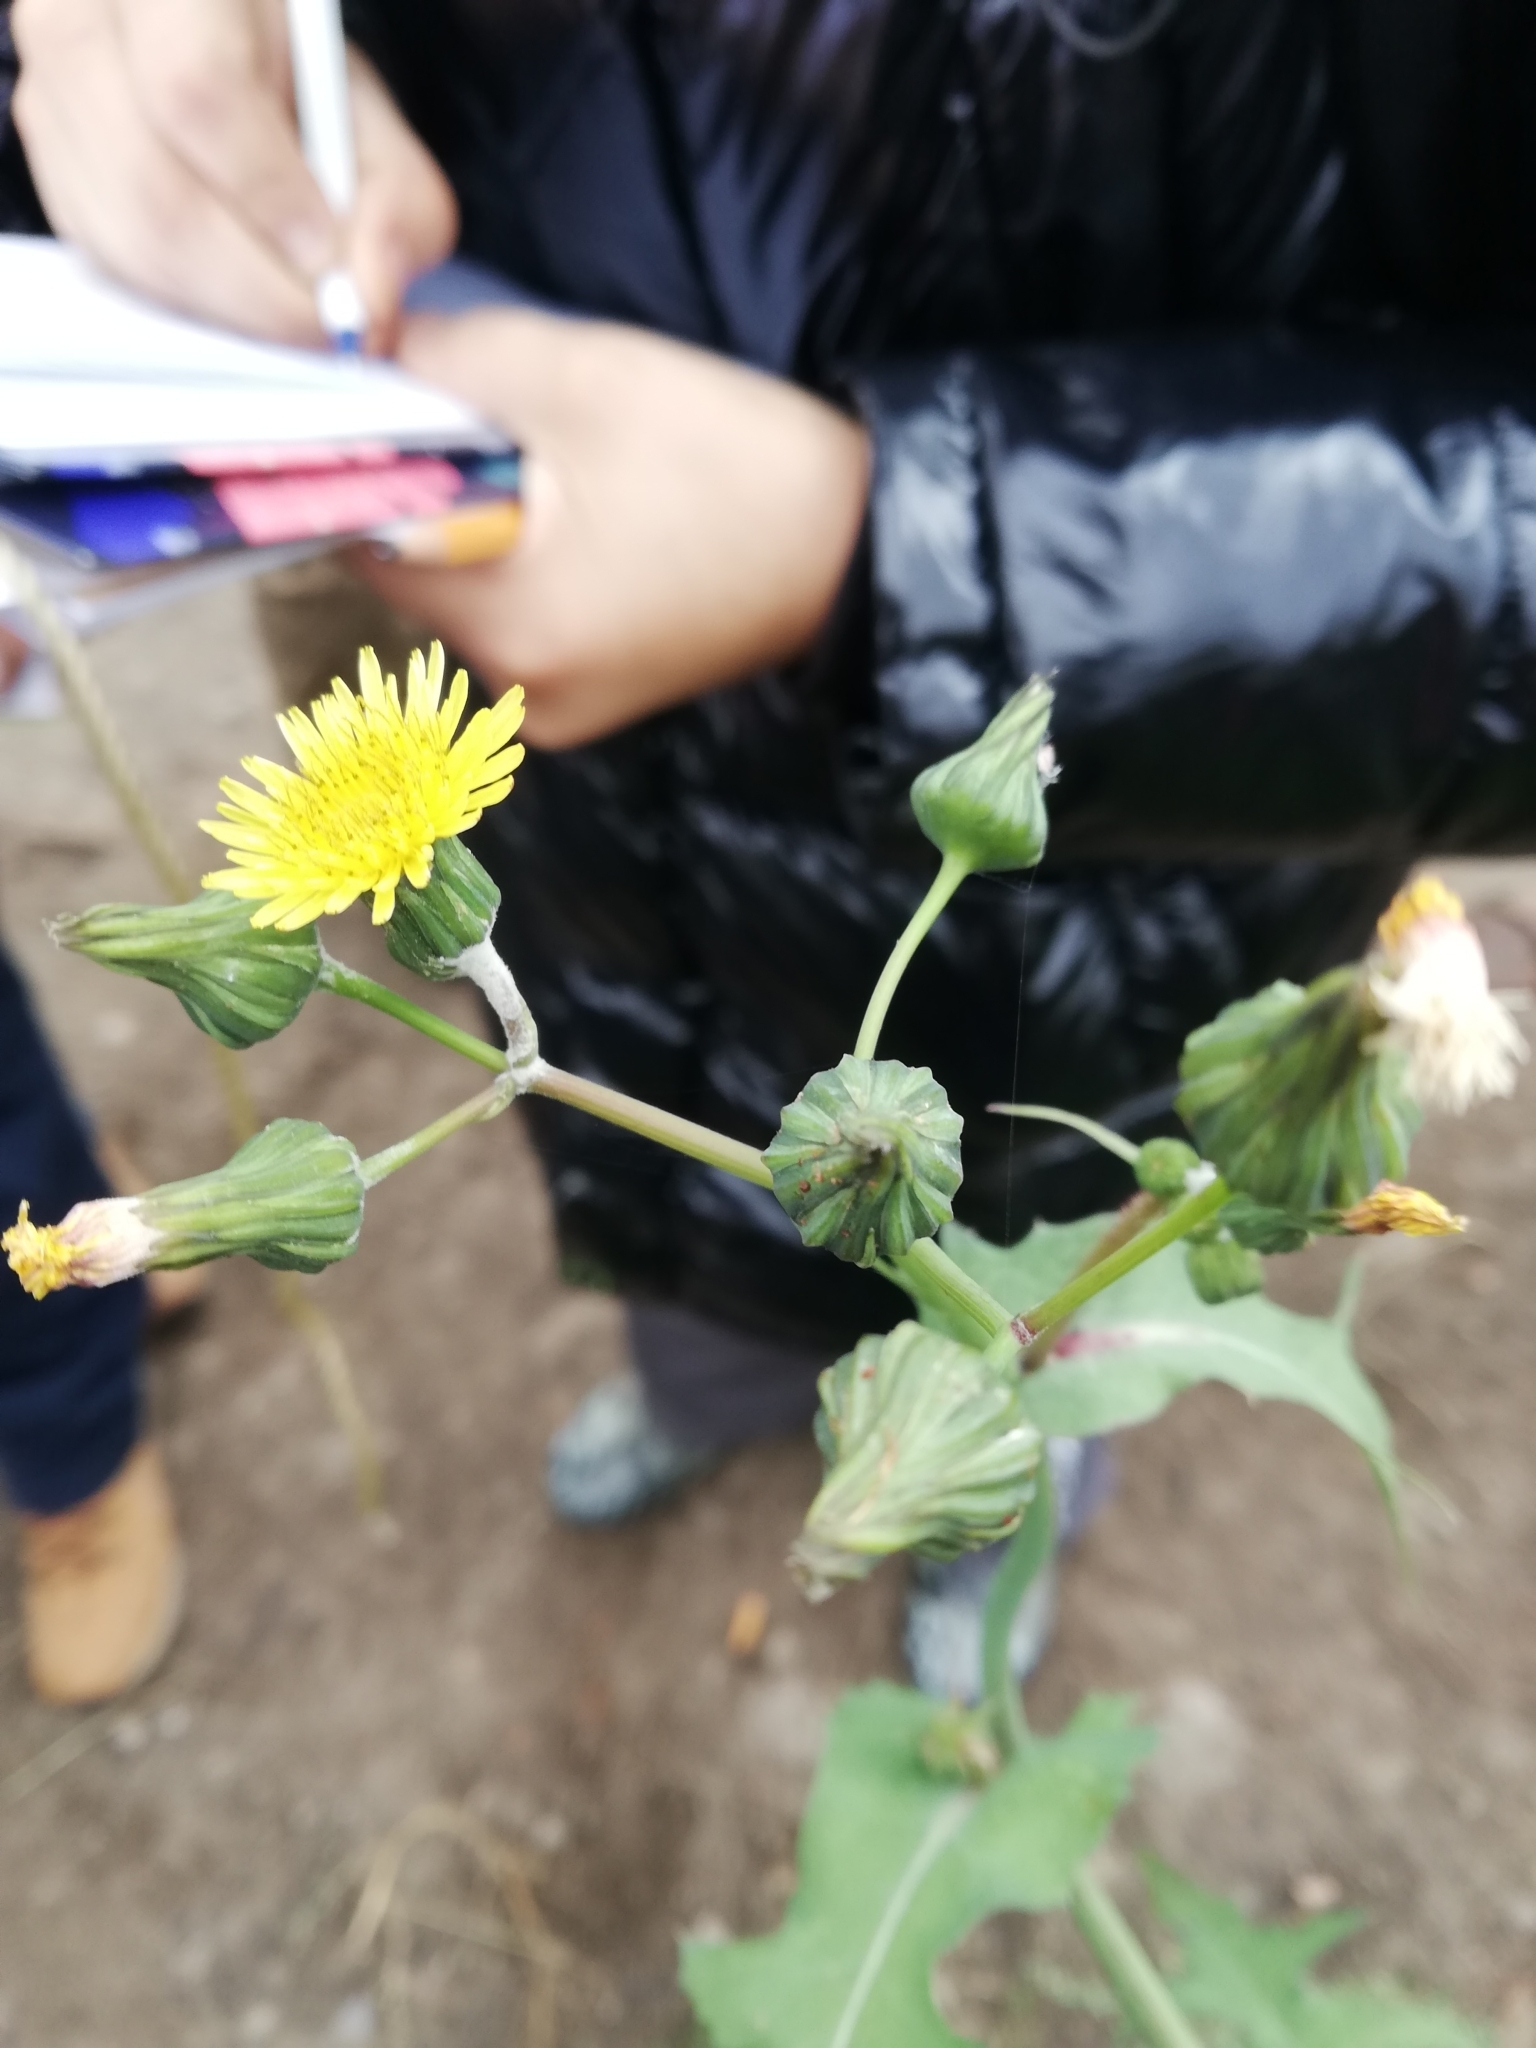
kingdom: Plantae
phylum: Tracheophyta
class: Magnoliopsida
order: Asterales
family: Asteraceae
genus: Sonchus
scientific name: Sonchus oleraceus
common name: Common sowthistle
